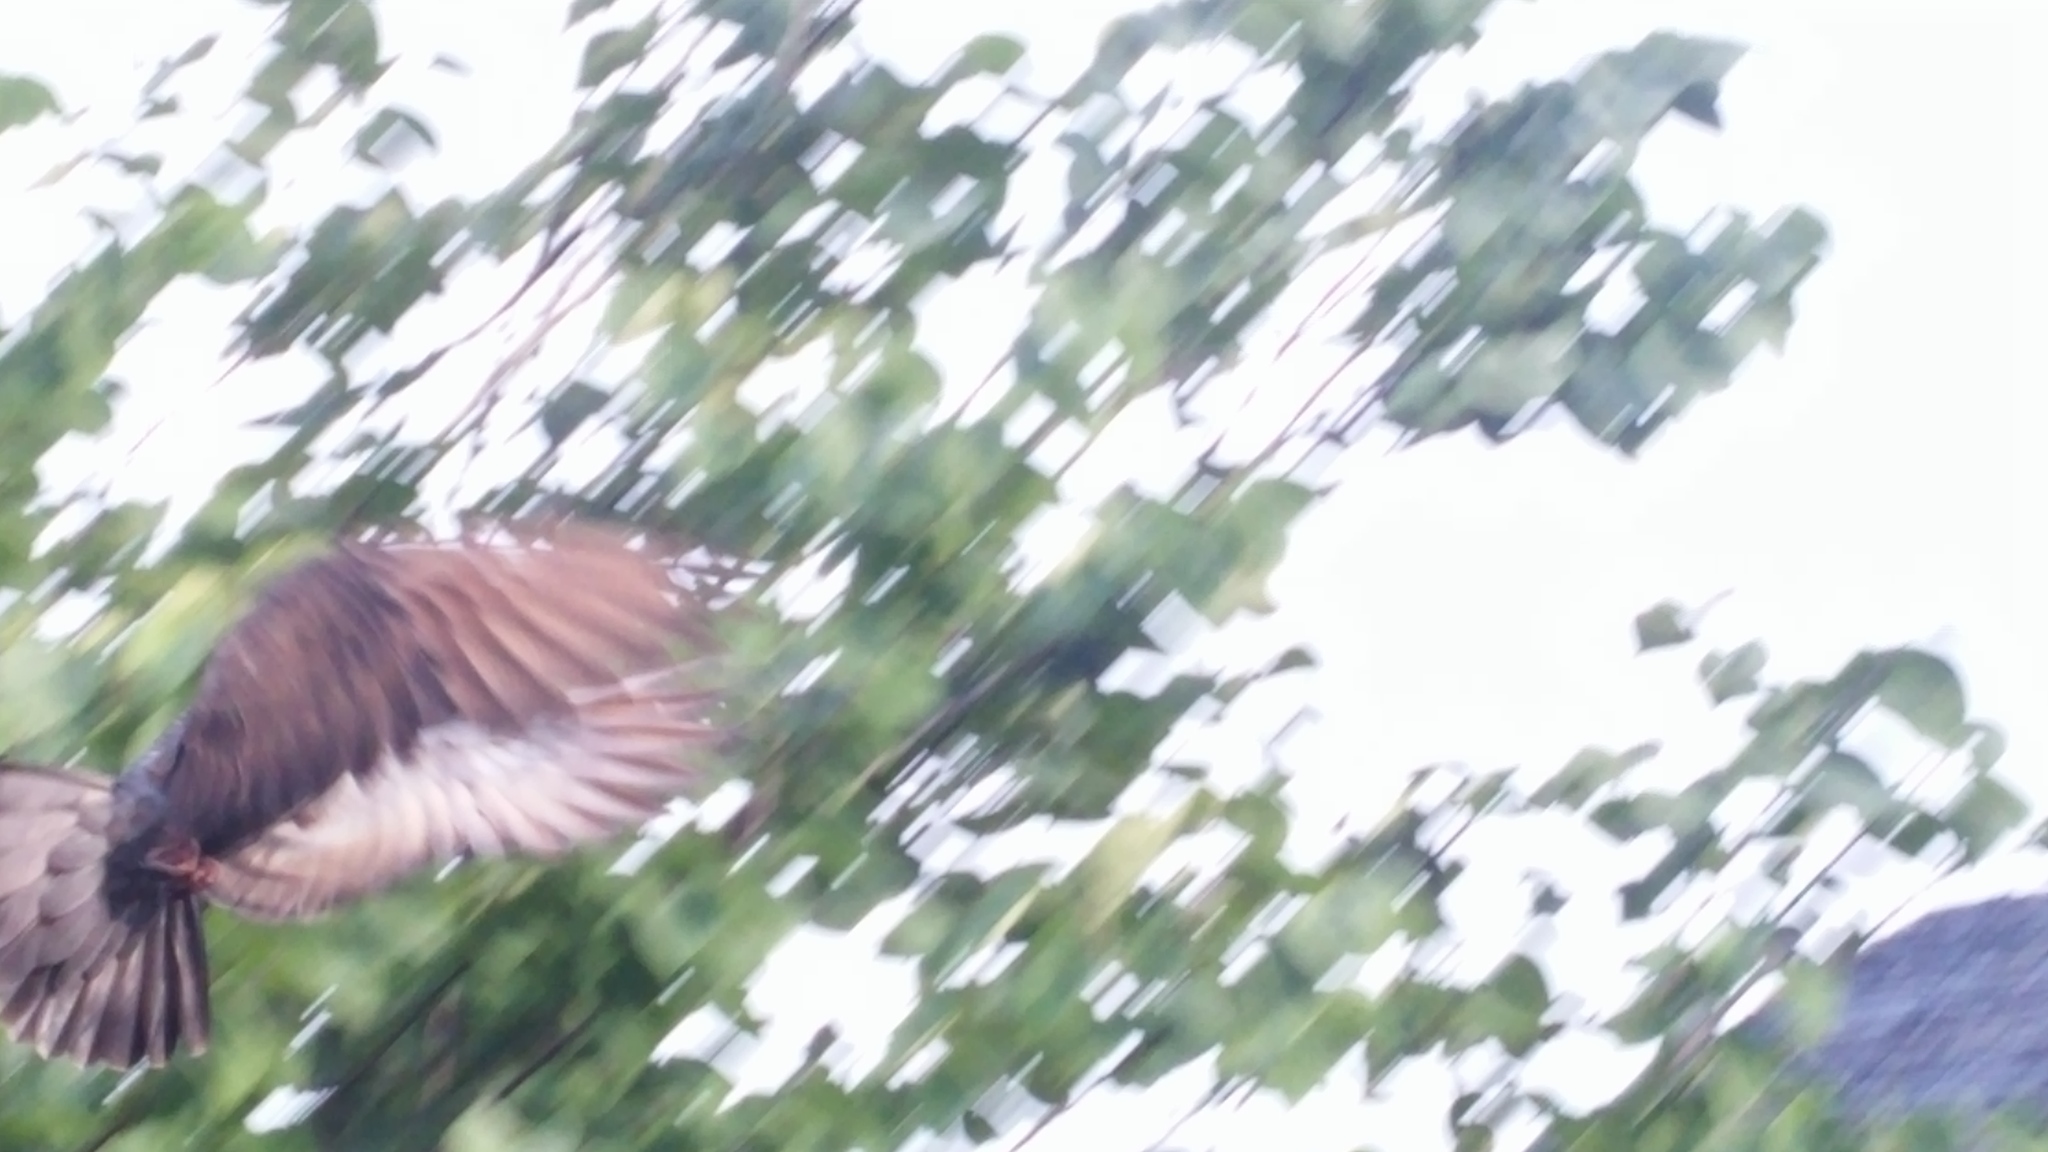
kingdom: Animalia
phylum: Chordata
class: Aves
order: Columbiformes
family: Columbidae
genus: Columba
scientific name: Columba livia
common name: Rock pigeon
